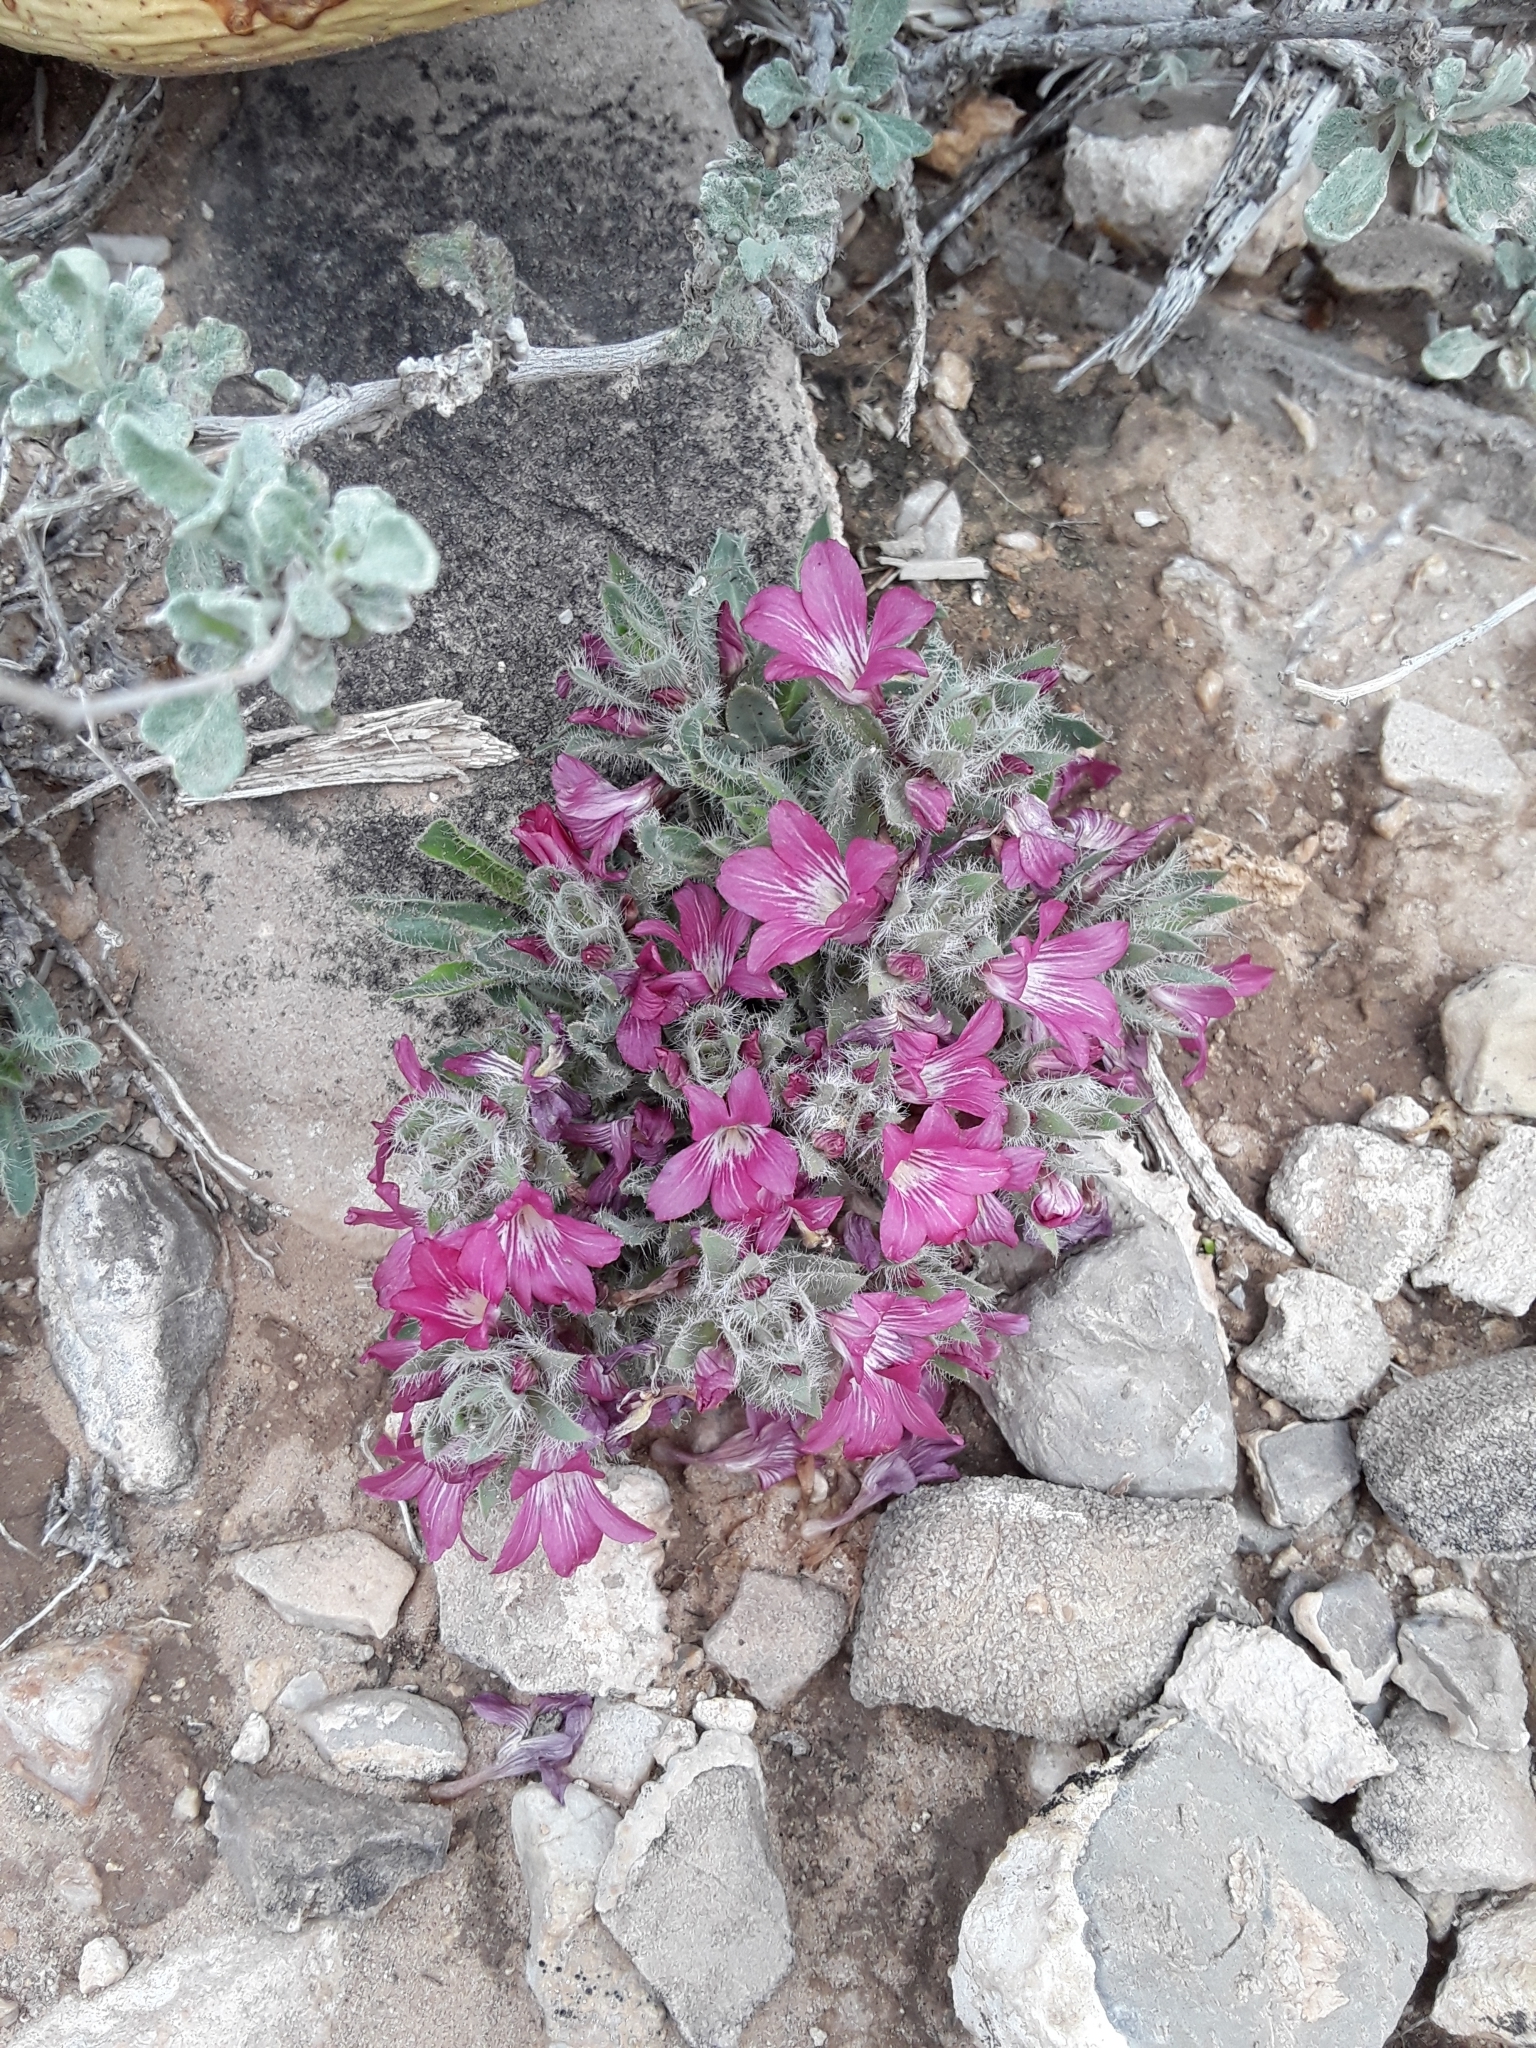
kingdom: Plantae
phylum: Tracheophyta
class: Magnoliopsida
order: Lamiales
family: Acanthaceae
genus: Stenandrium
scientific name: Stenandrium barbatum
